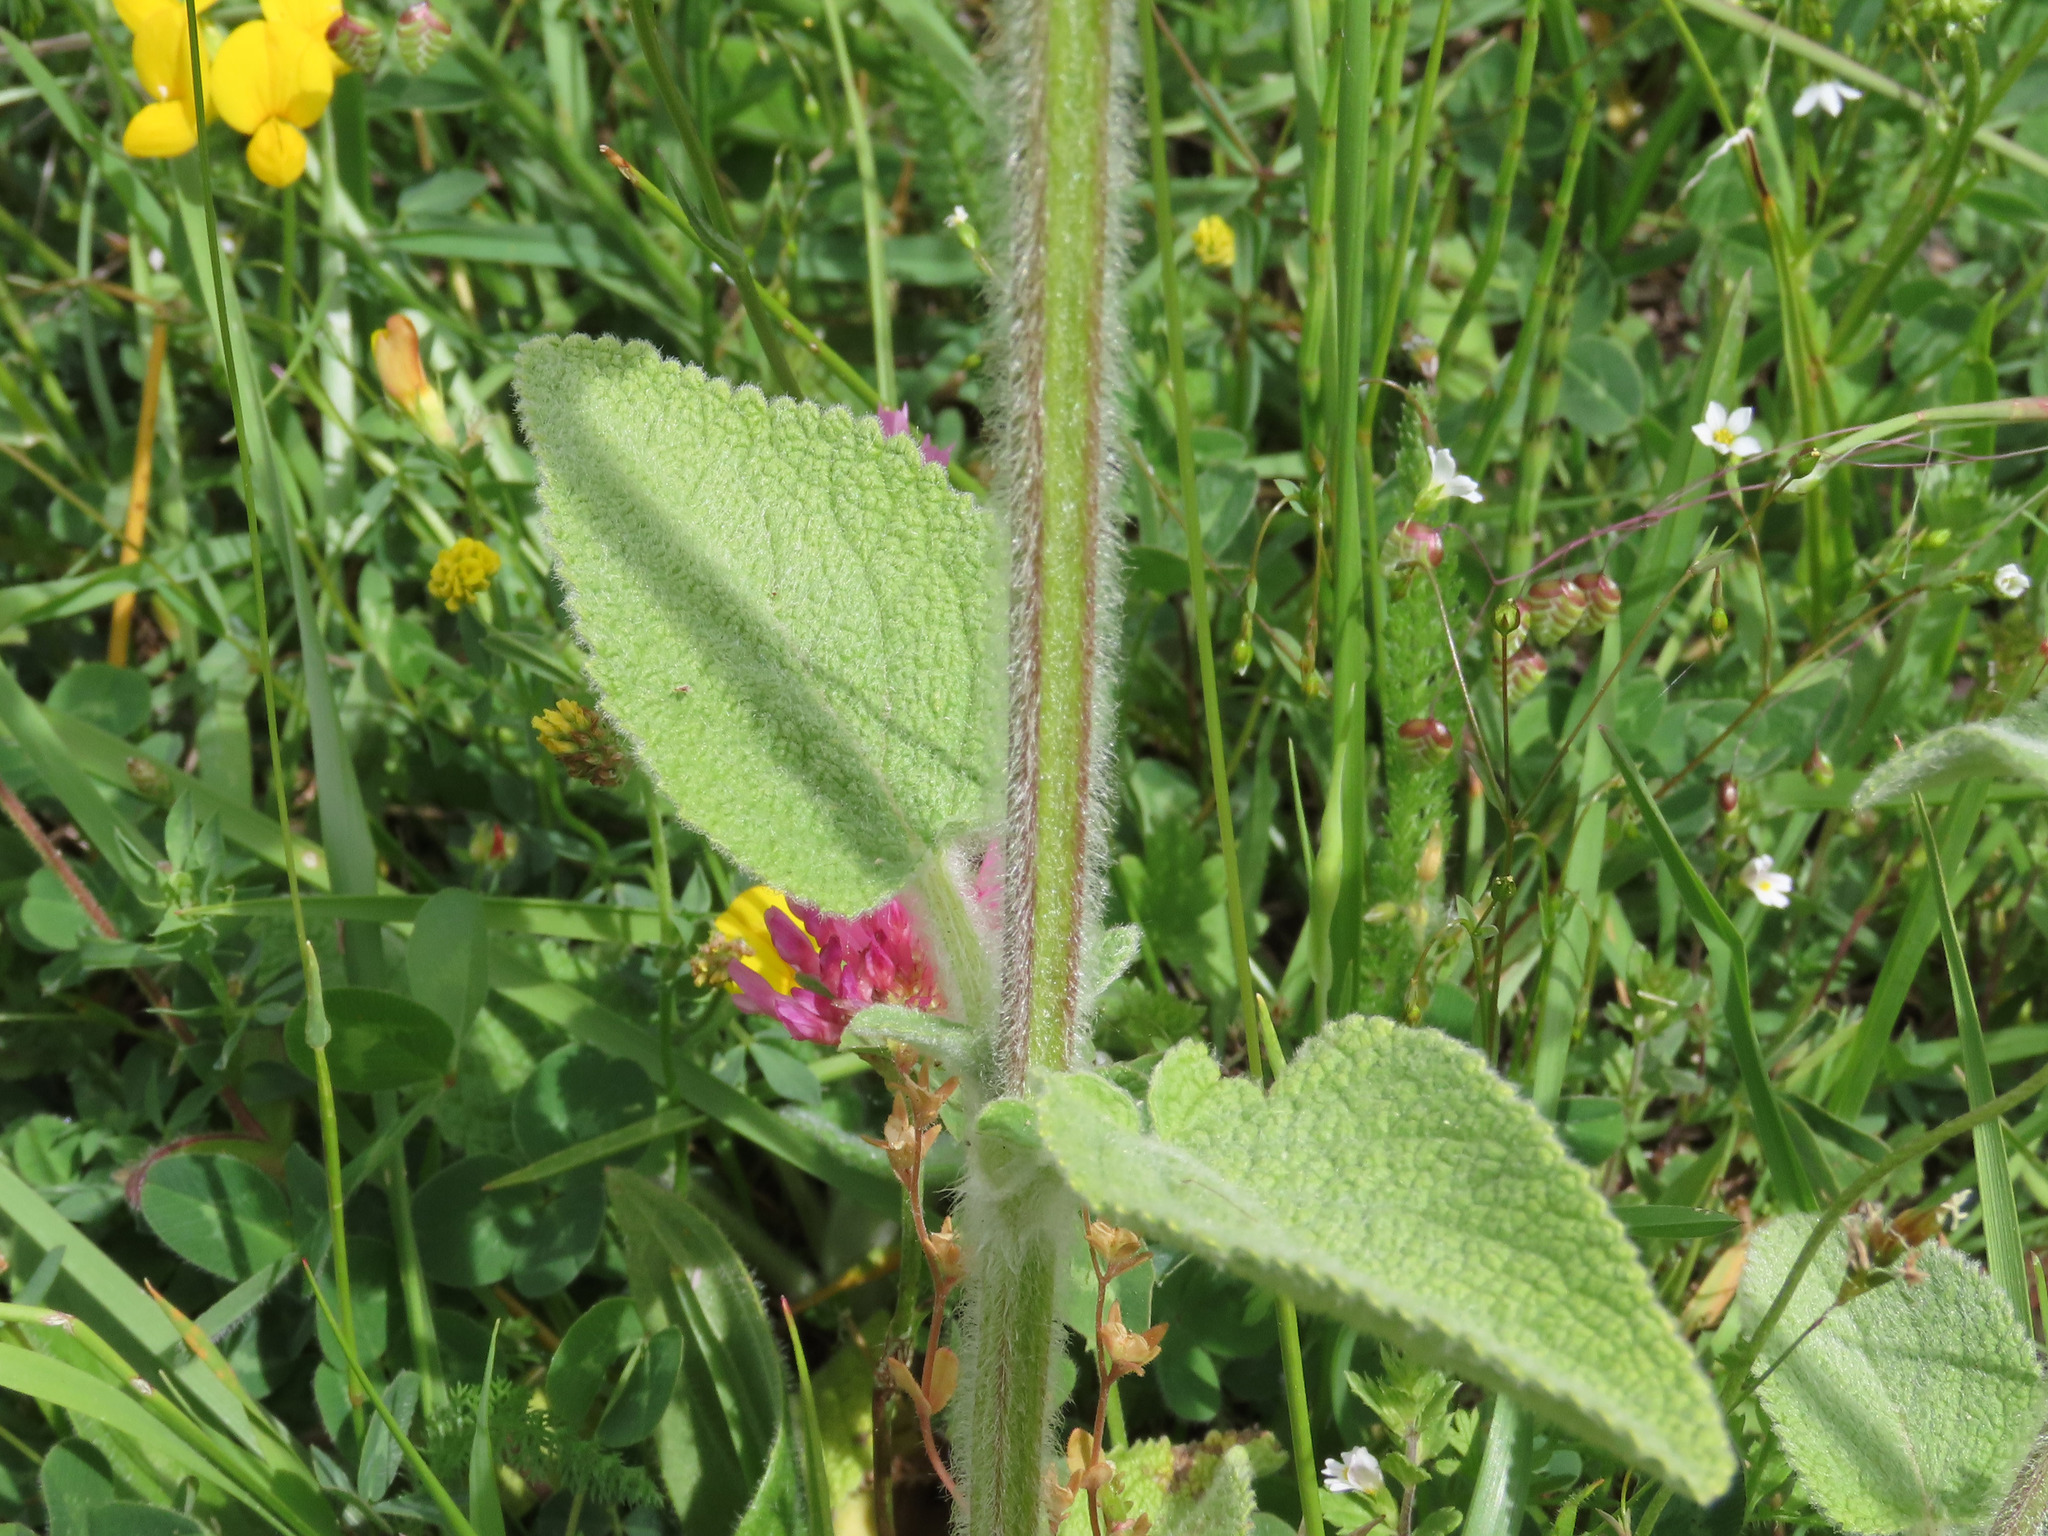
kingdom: Plantae
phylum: Tracheophyta
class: Magnoliopsida
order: Lamiales
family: Lamiaceae
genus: Stachys
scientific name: Stachys germanica
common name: Downy woundwort
